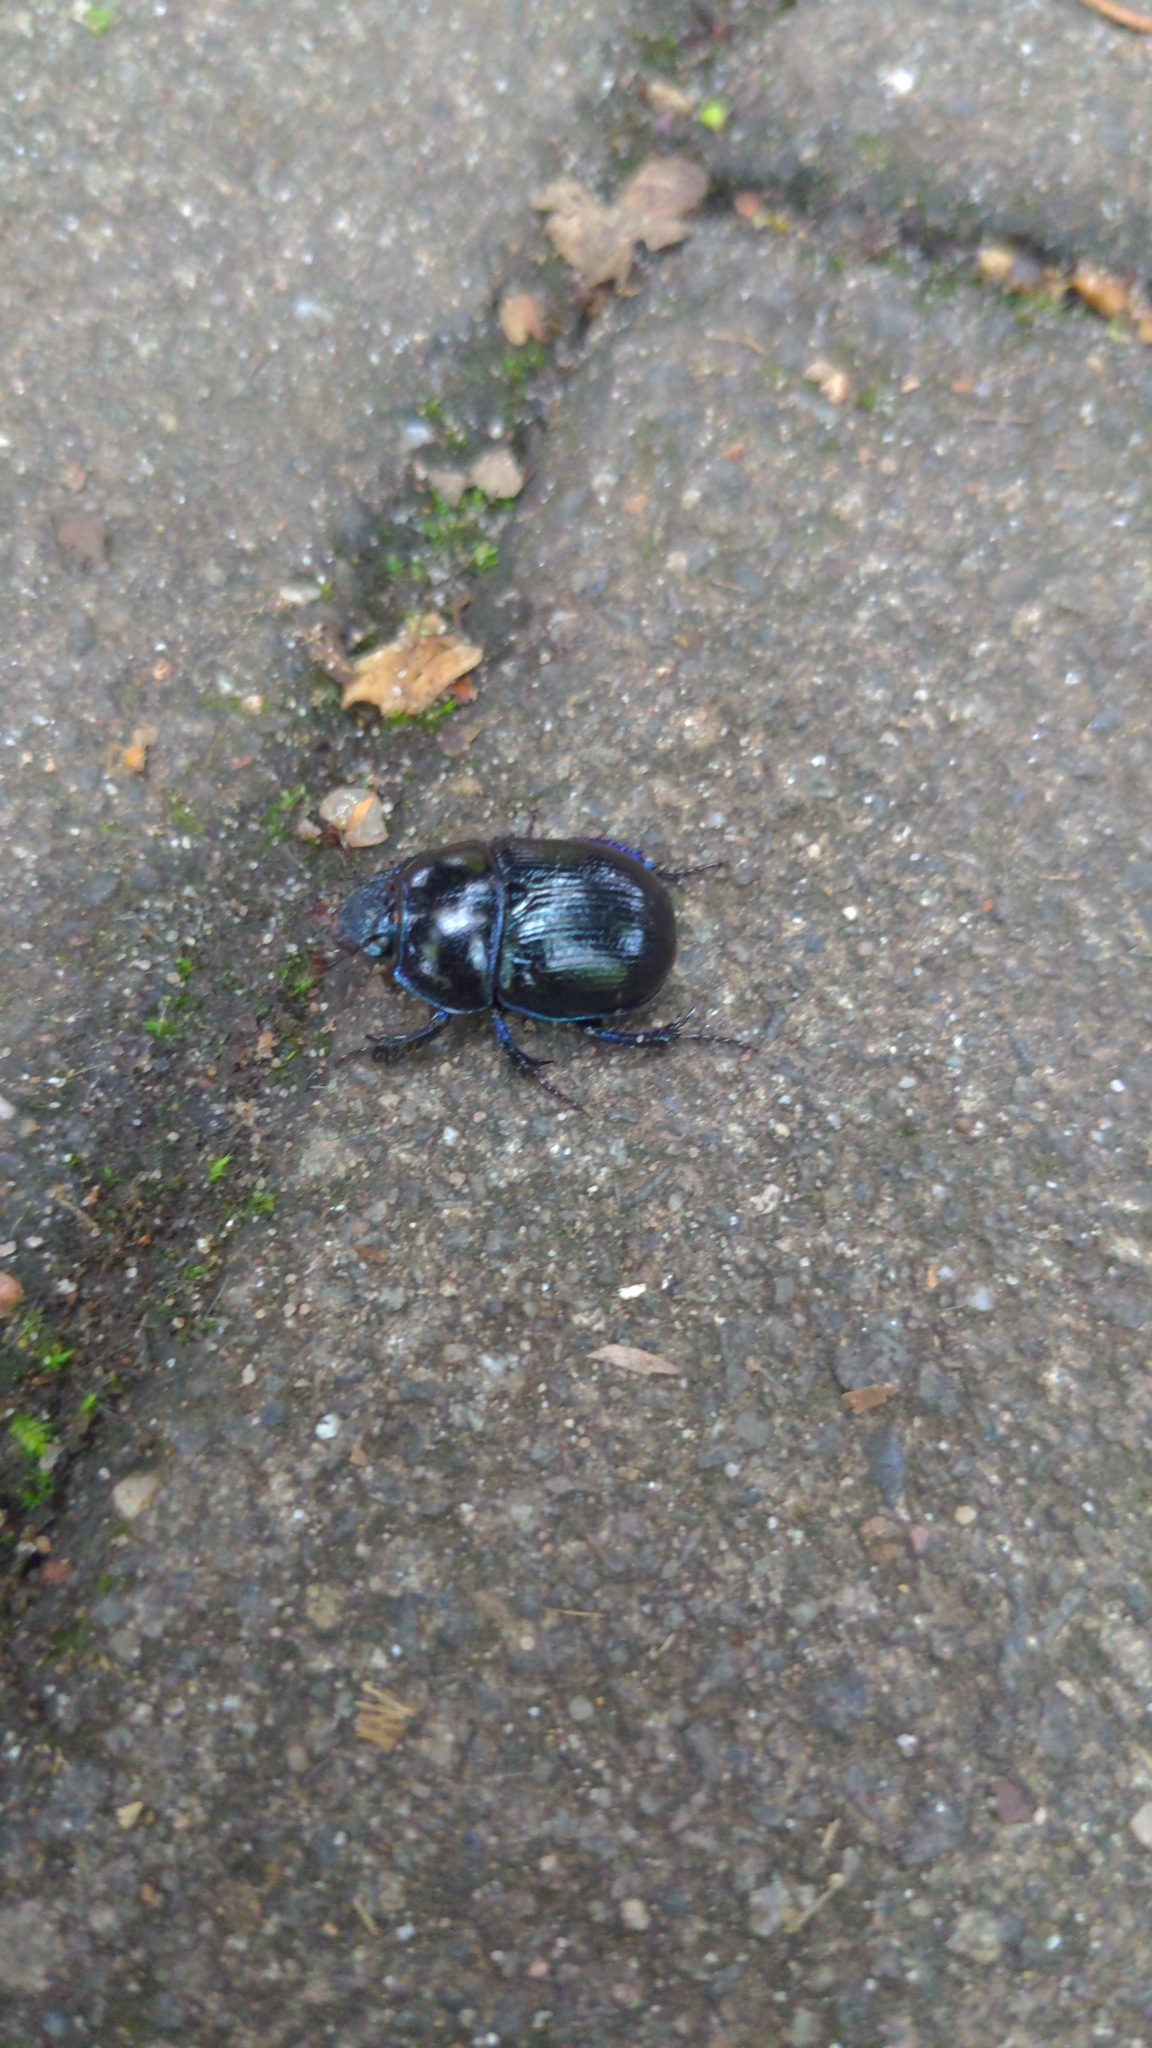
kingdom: Animalia
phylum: Arthropoda
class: Insecta
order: Coleoptera
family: Geotrupidae
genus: Anoplotrupes
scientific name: Anoplotrupes stercorosus
